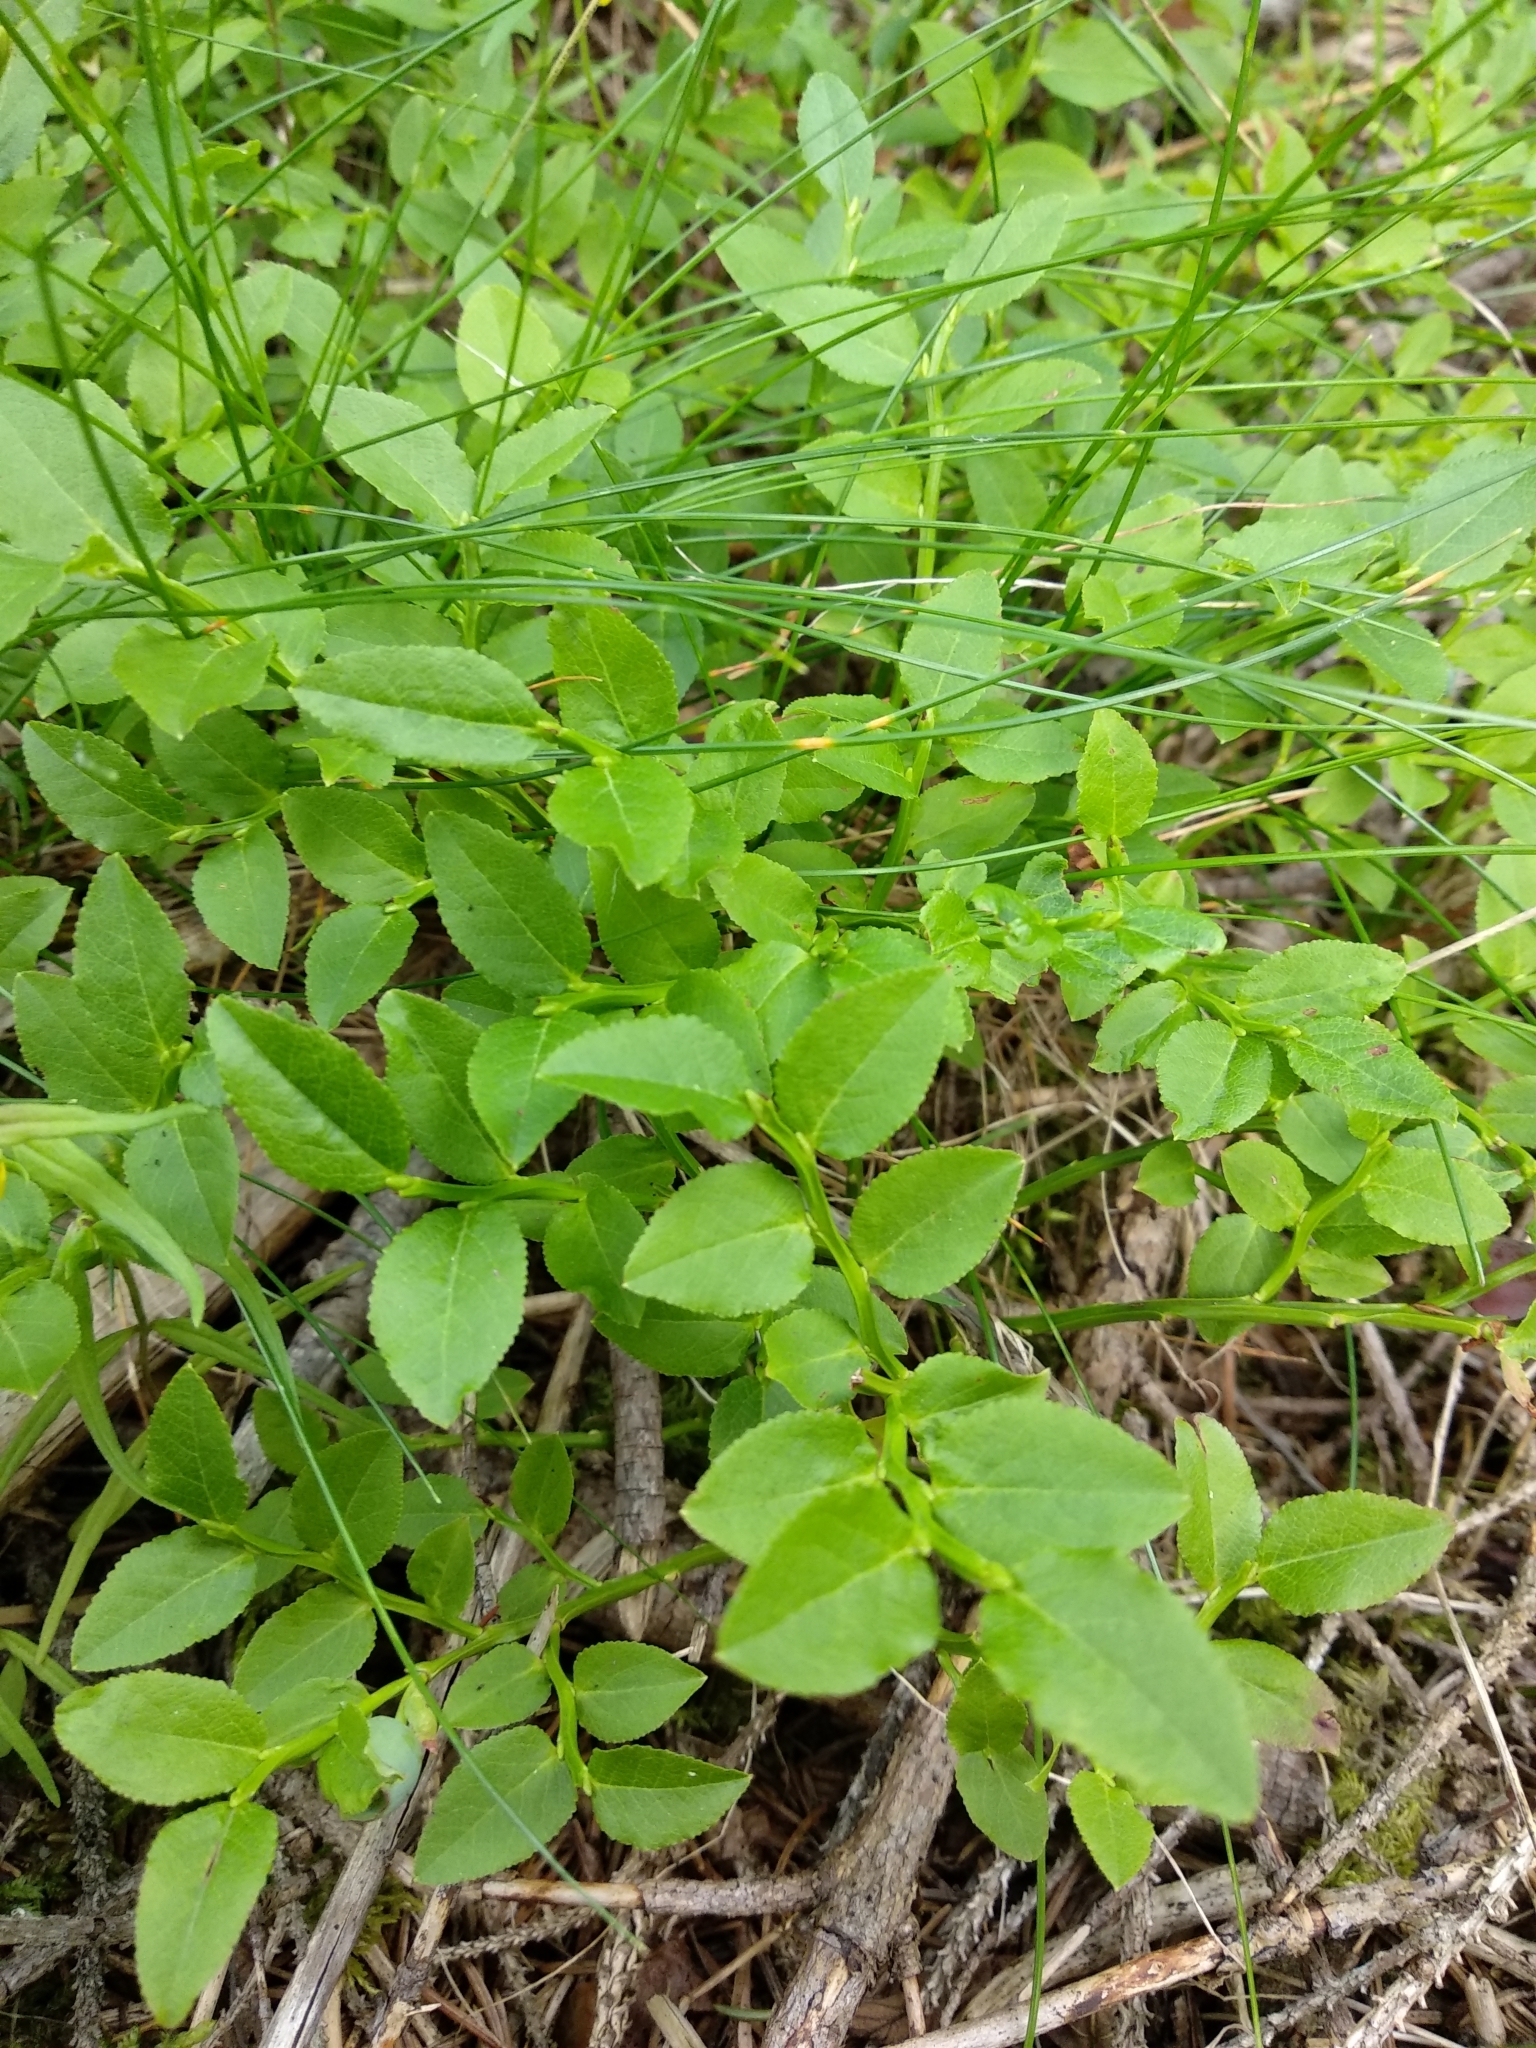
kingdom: Plantae
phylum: Tracheophyta
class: Magnoliopsida
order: Ericales
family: Ericaceae
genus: Vaccinium
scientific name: Vaccinium myrtillus
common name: Bilberry
